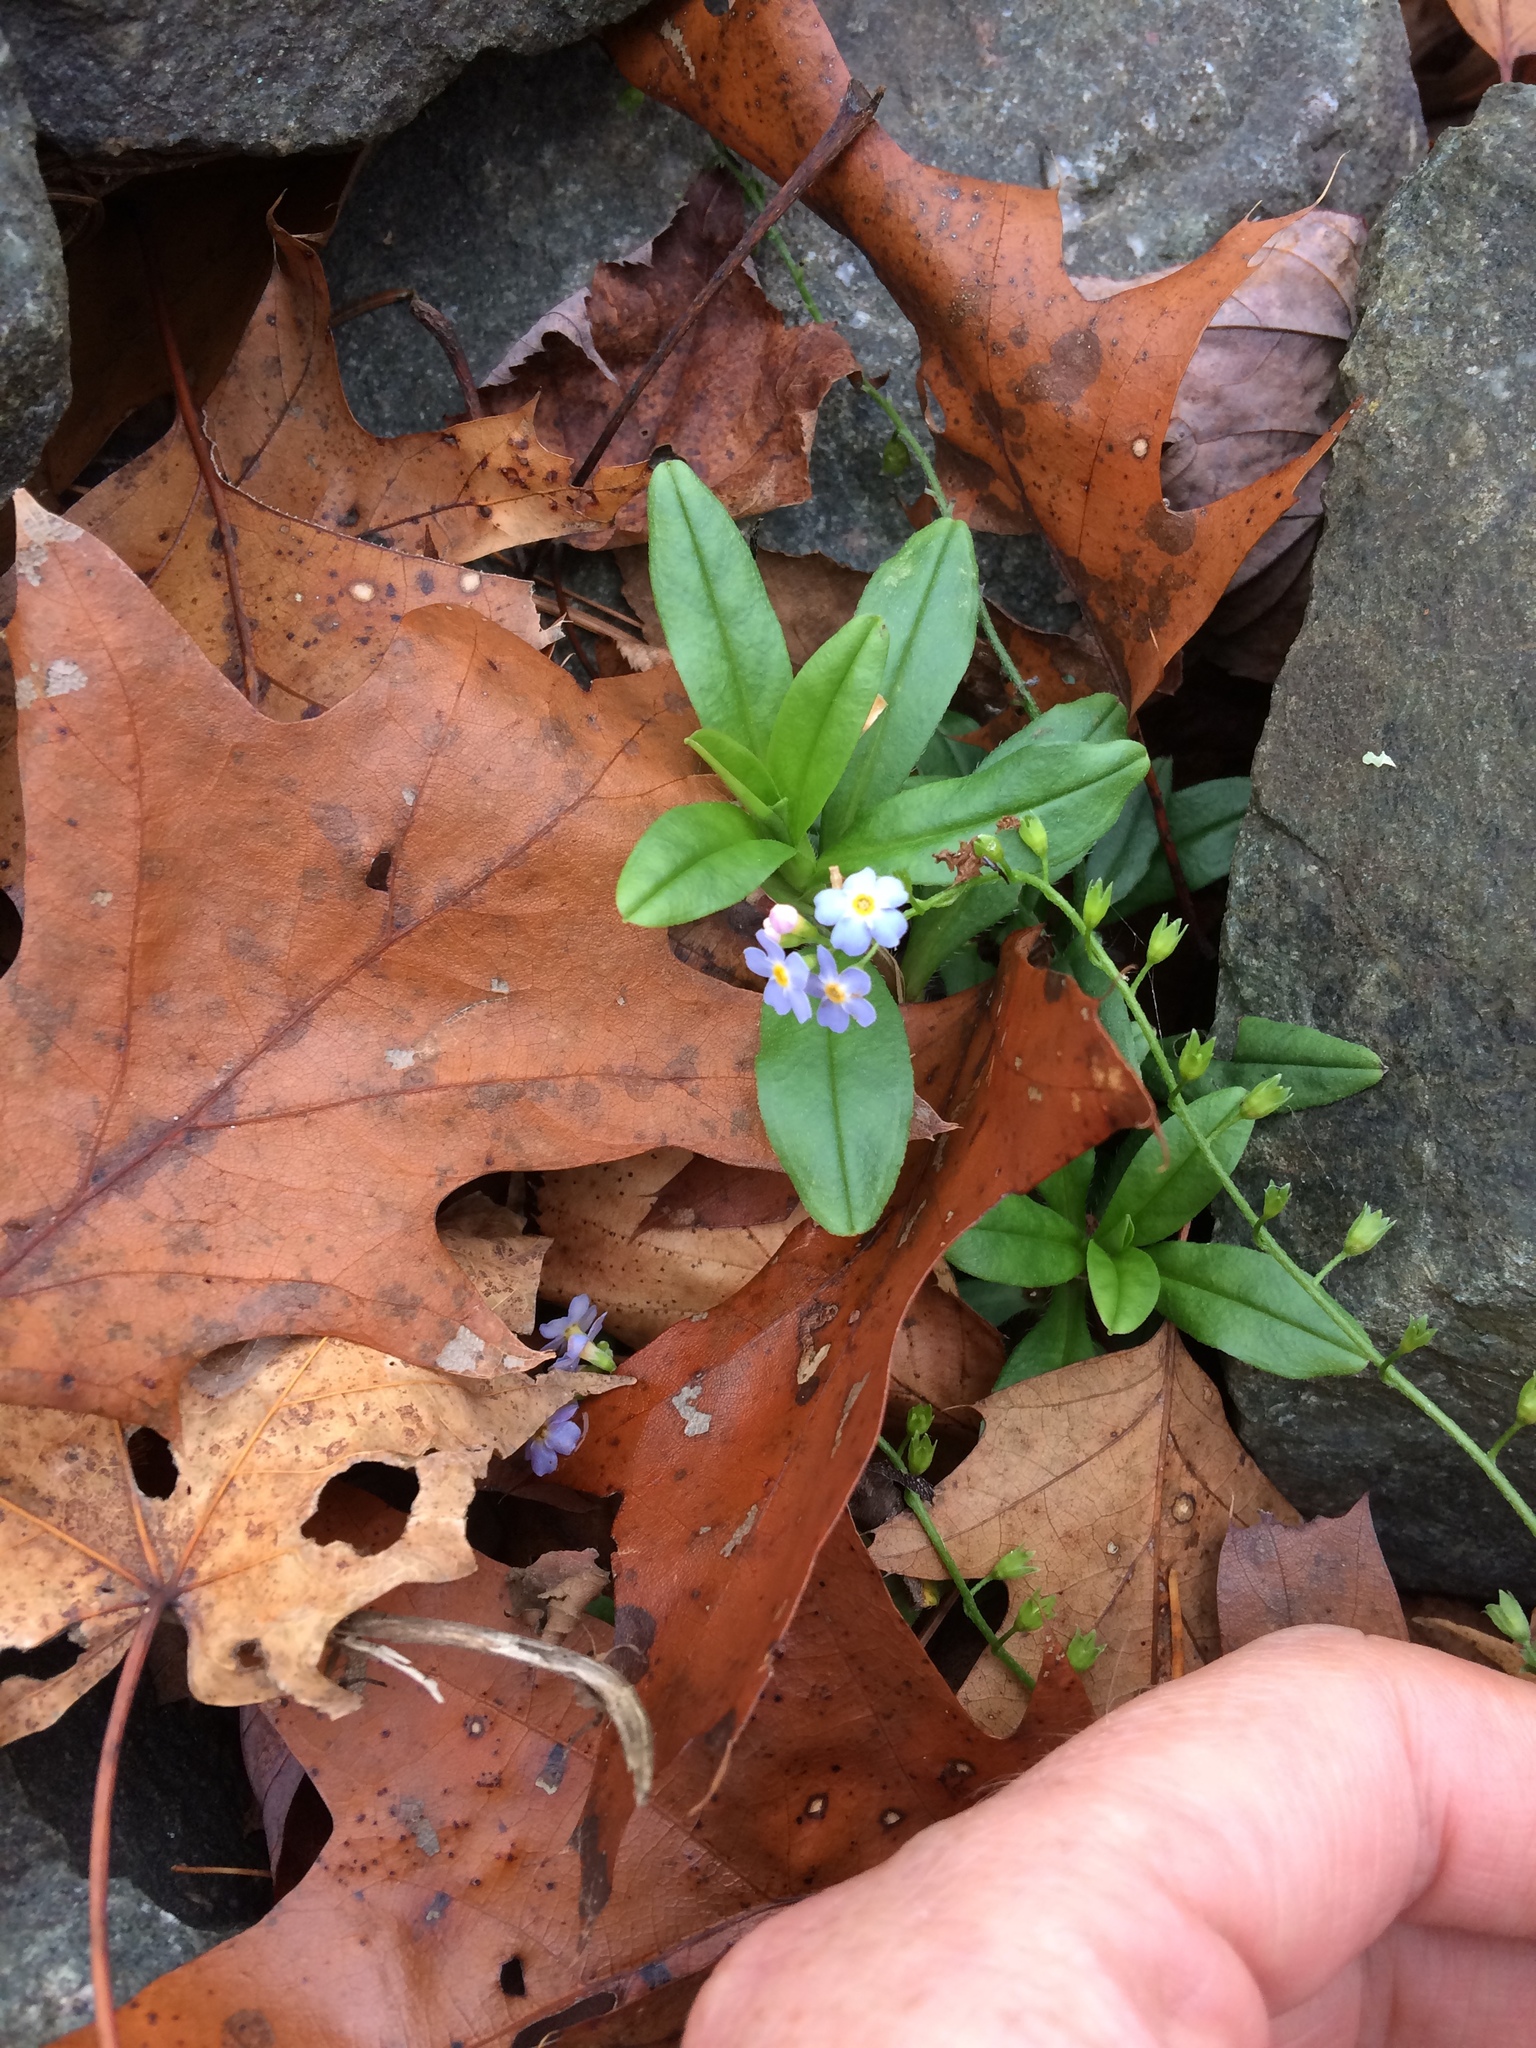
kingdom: Plantae
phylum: Tracheophyta
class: Magnoliopsida
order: Boraginales
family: Boraginaceae
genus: Myosotis
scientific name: Myosotis scorpioides
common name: Water forget-me-not
